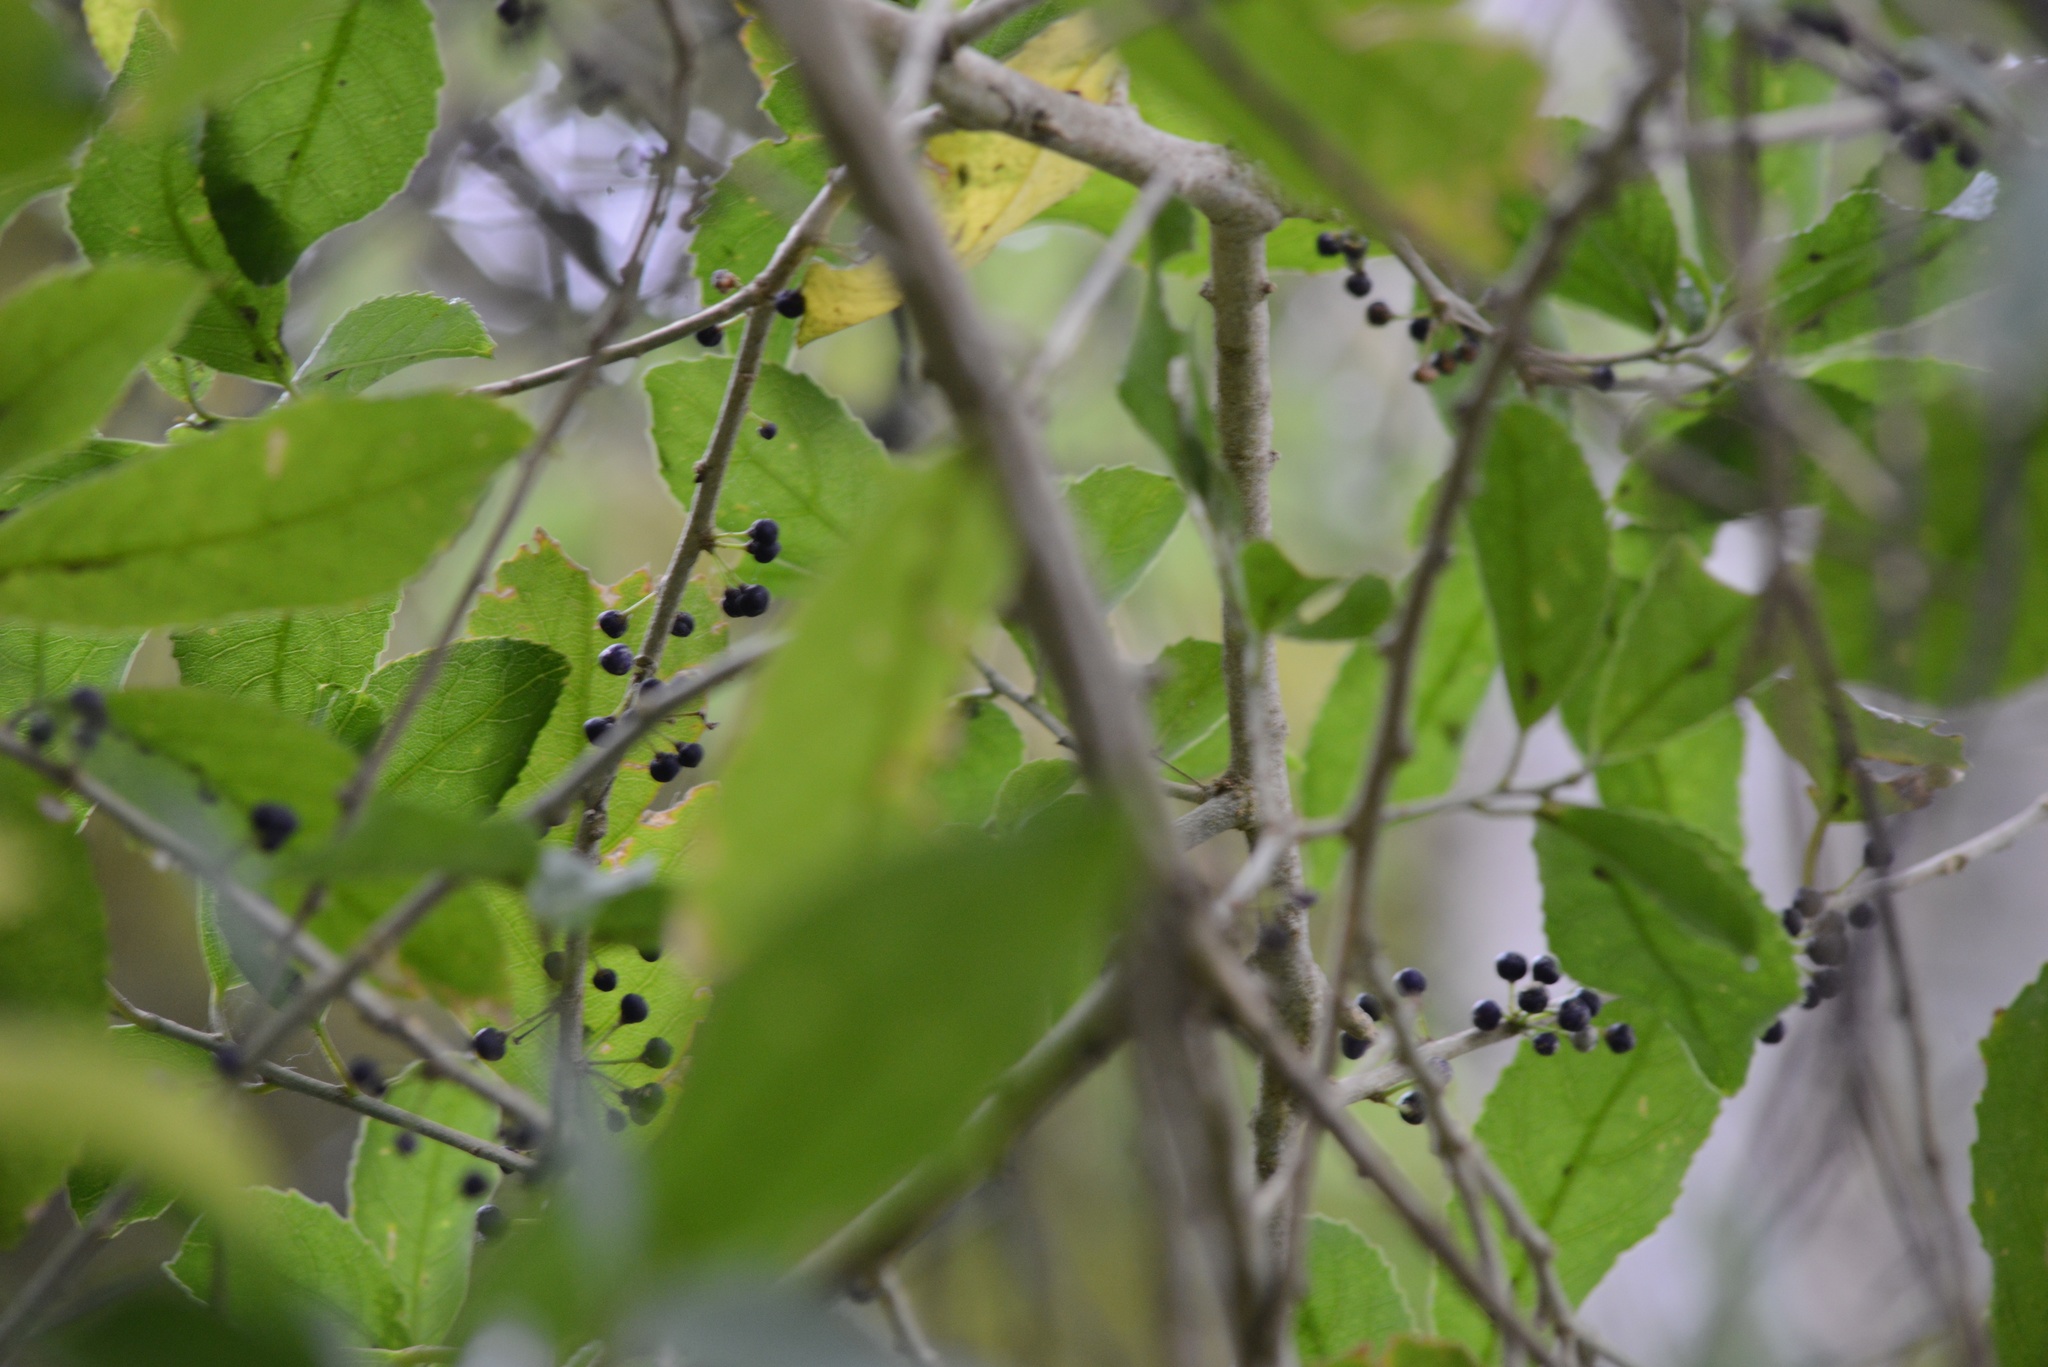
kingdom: Plantae
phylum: Tracheophyta
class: Magnoliopsida
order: Malpighiales
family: Violaceae
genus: Melicytus
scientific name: Melicytus ramiflorus
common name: Mahoe
